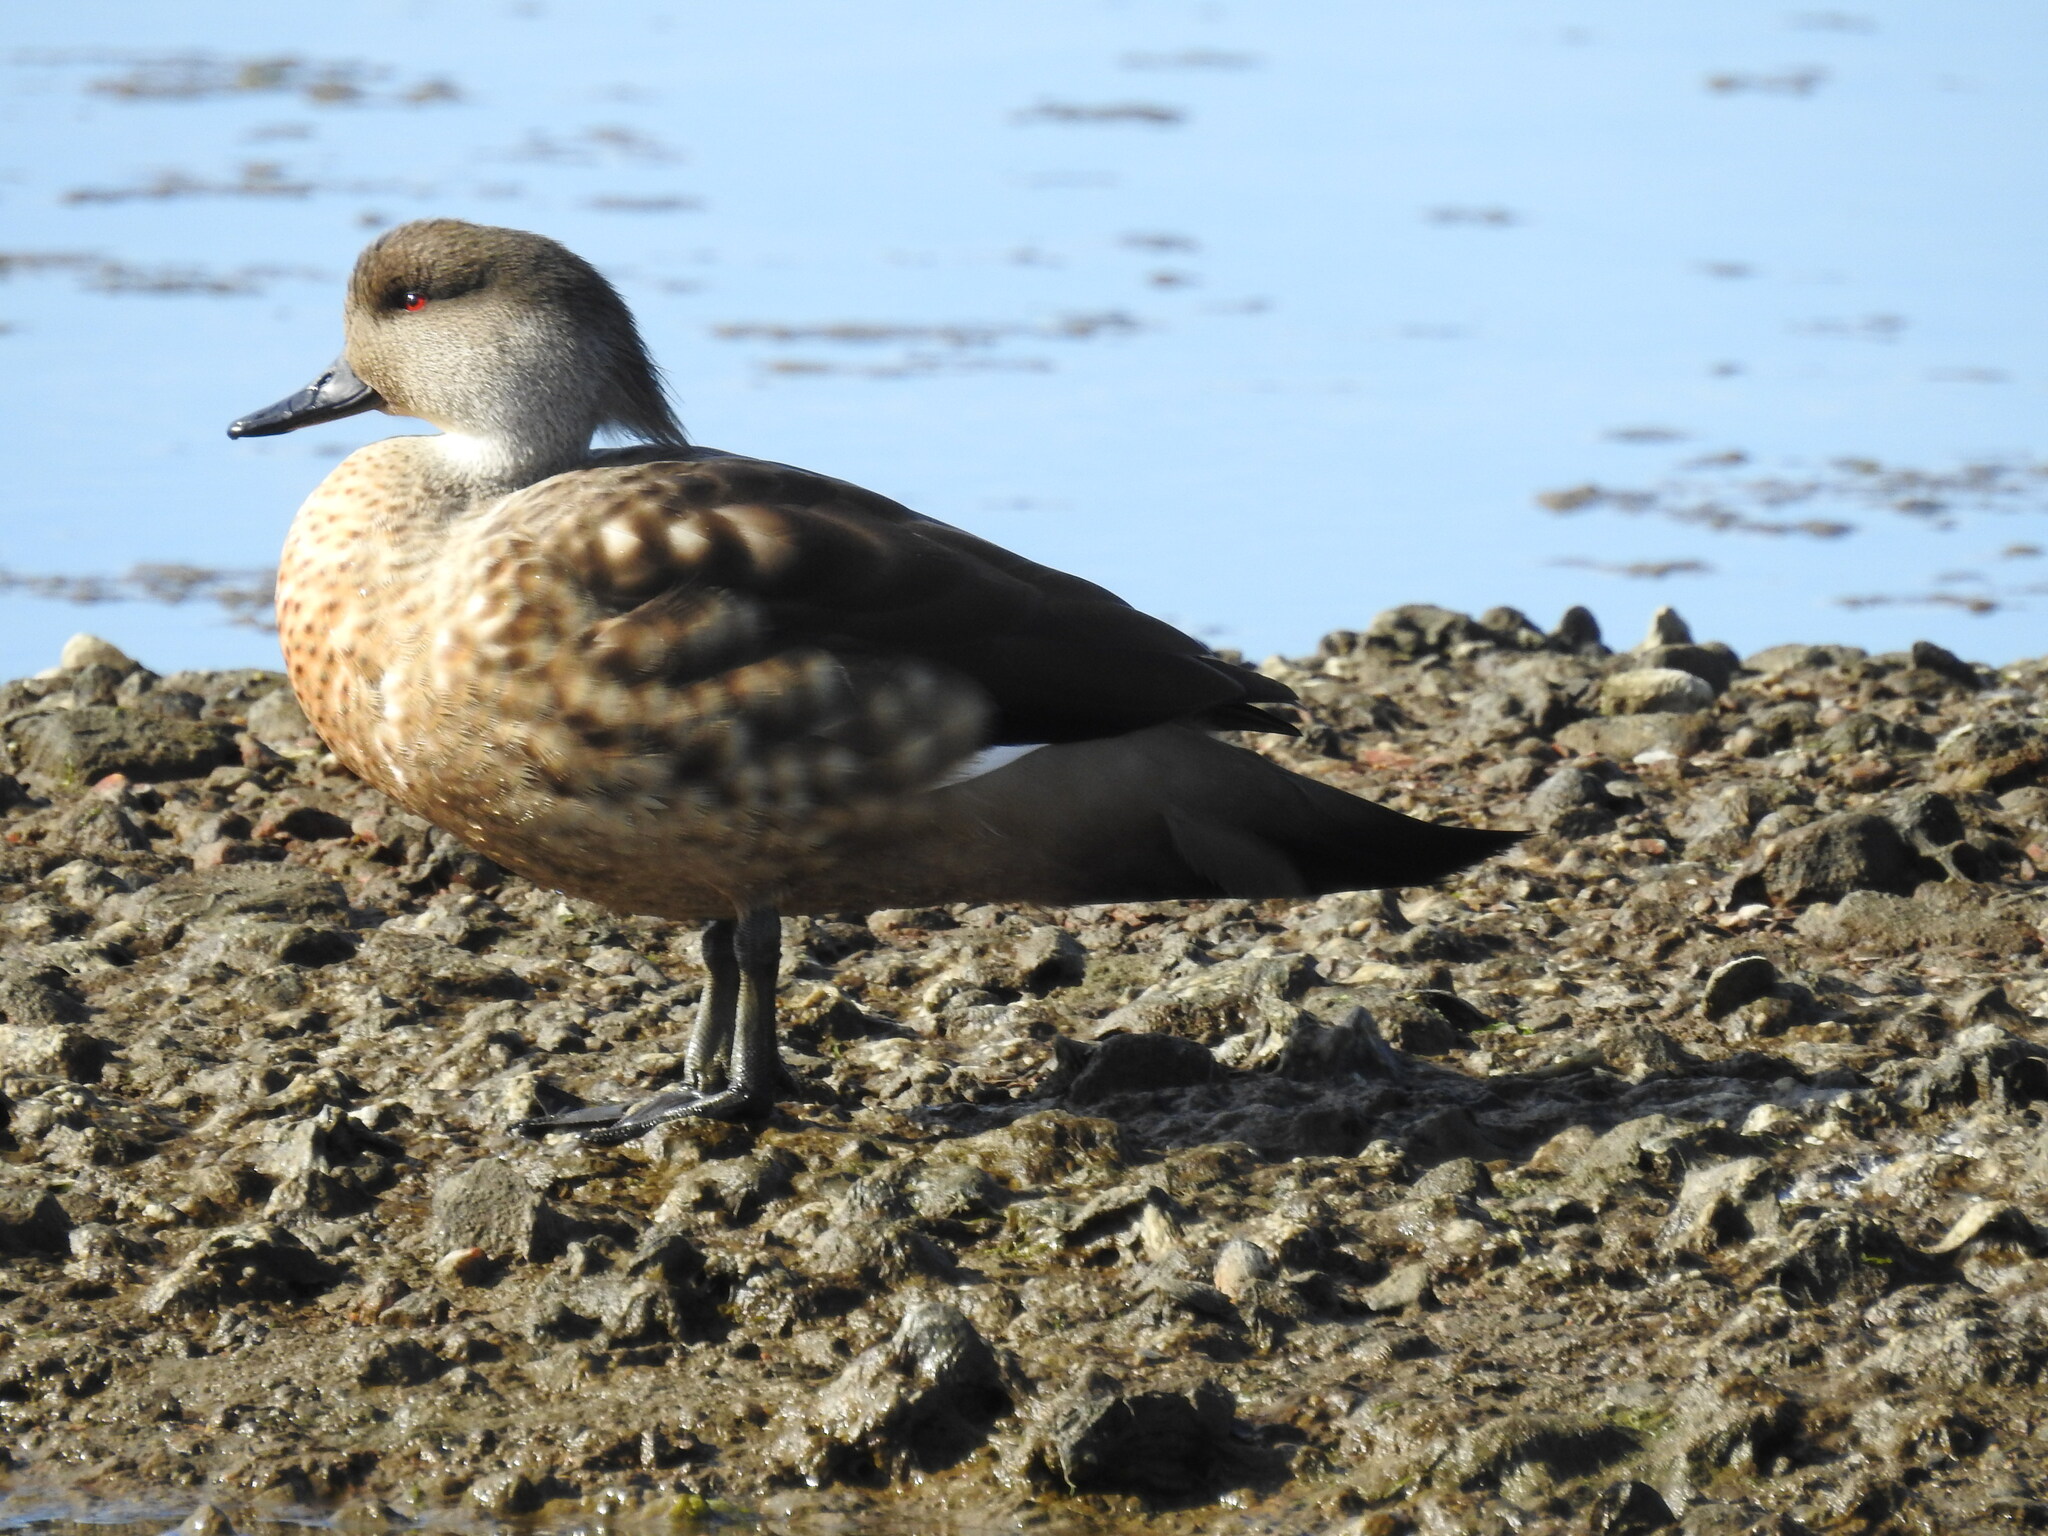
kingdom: Animalia
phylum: Chordata
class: Aves
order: Anseriformes
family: Anatidae
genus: Lophonetta
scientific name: Lophonetta specularioides
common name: Crested duck
